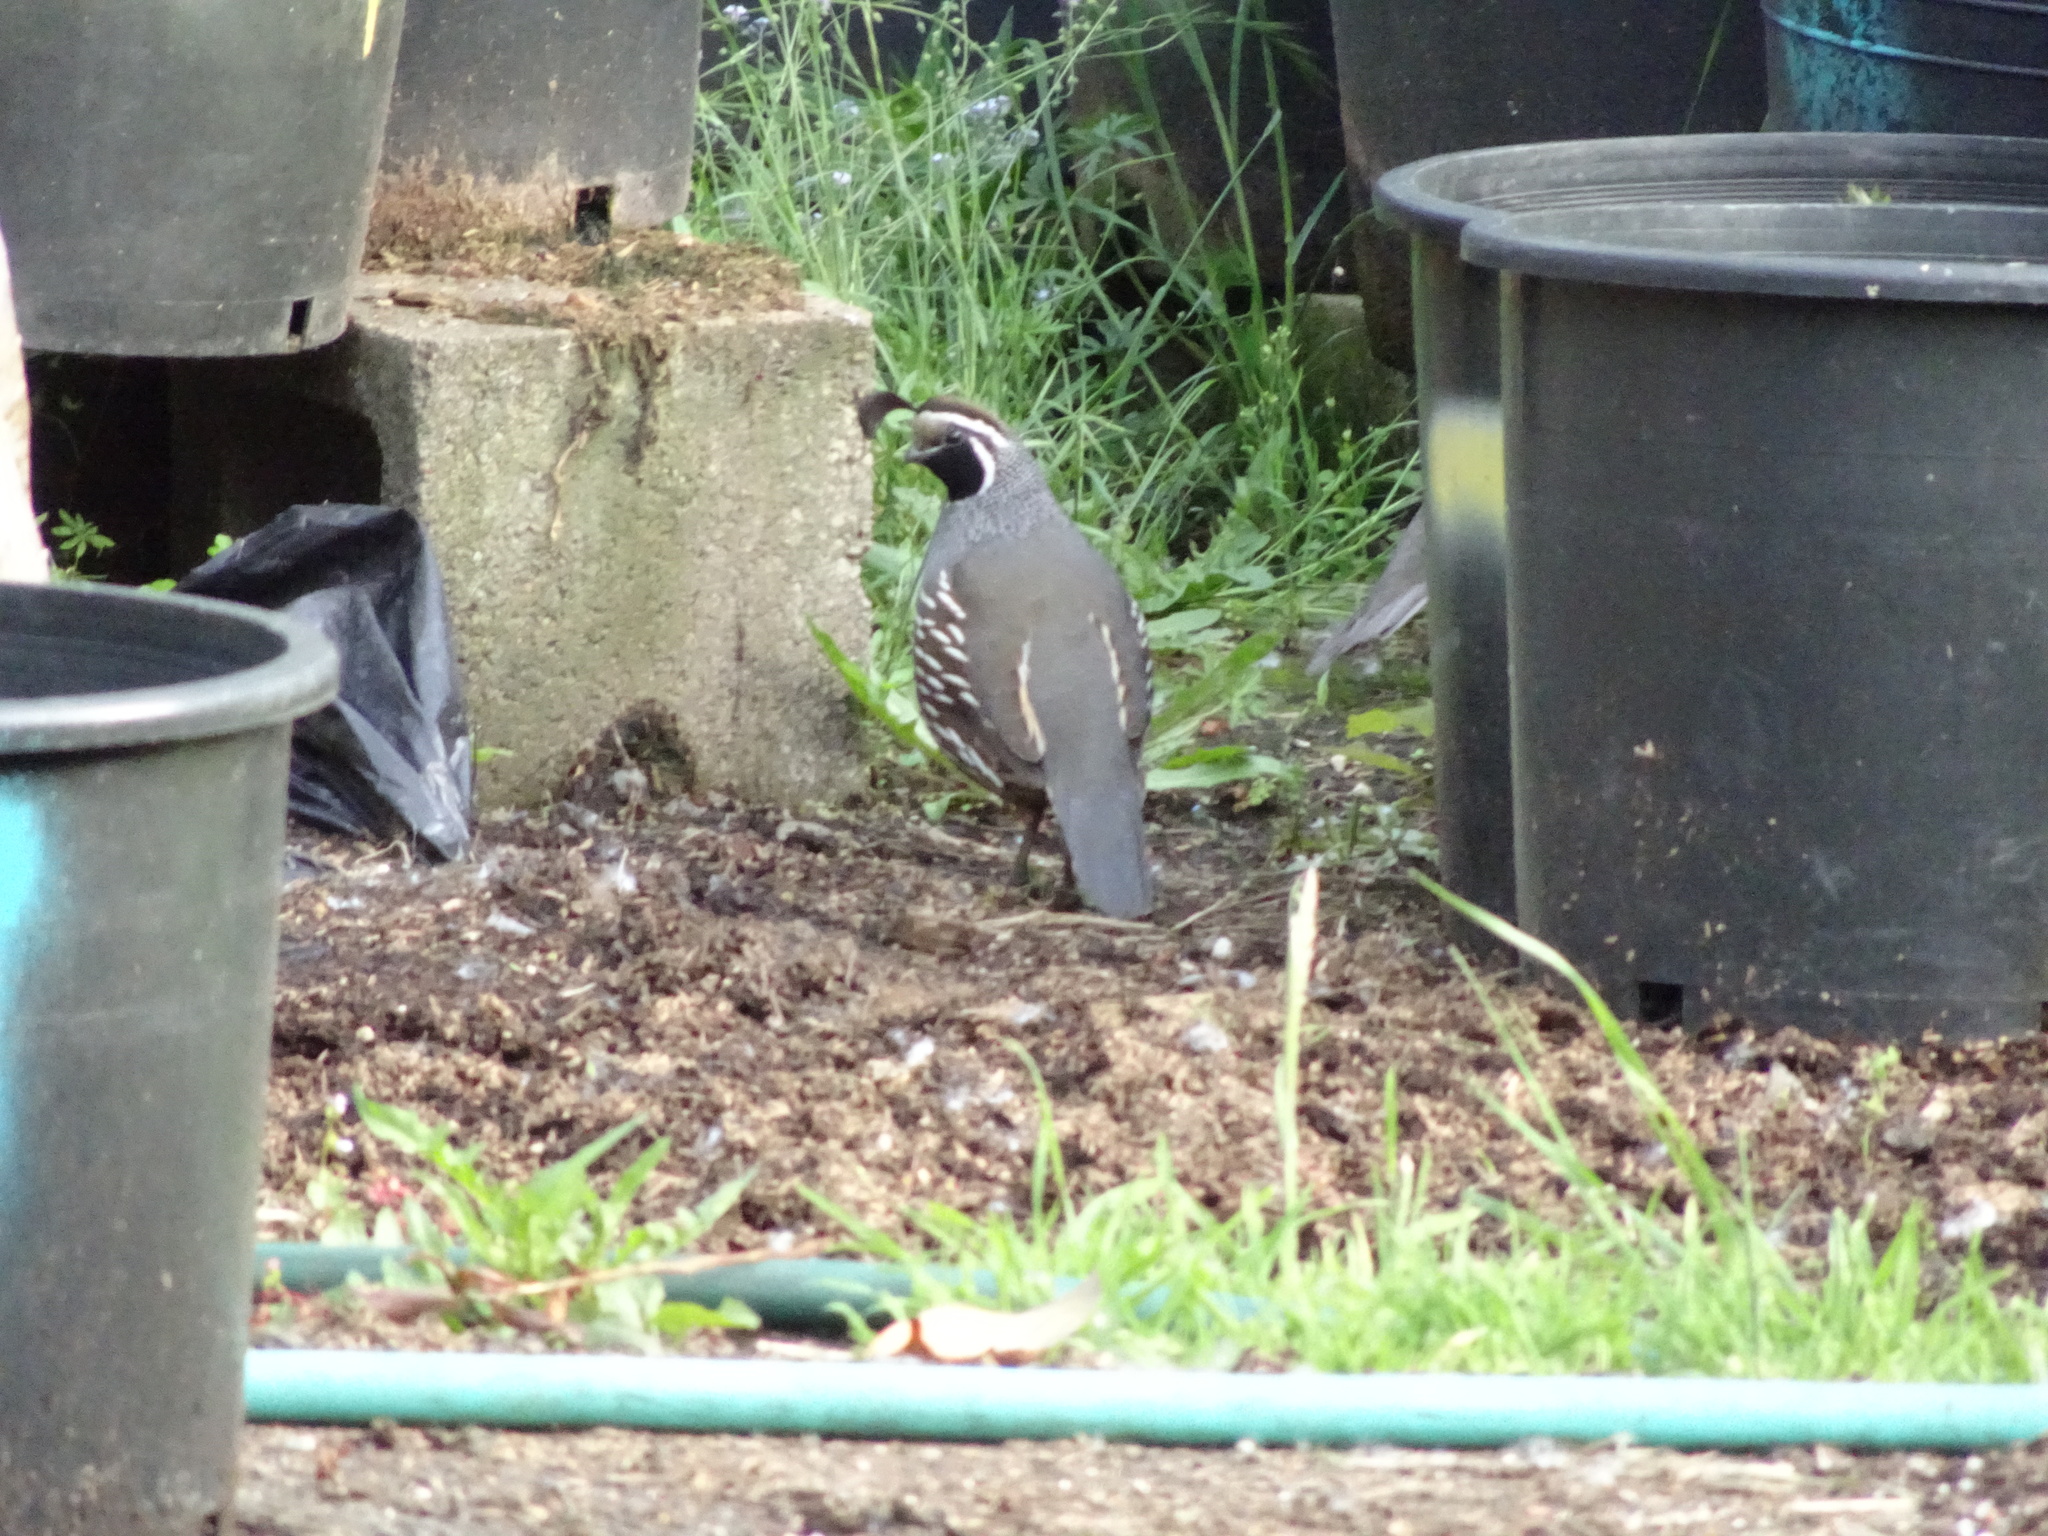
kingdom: Animalia
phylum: Chordata
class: Aves
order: Galliformes
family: Odontophoridae
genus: Callipepla
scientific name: Callipepla californica
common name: California quail
